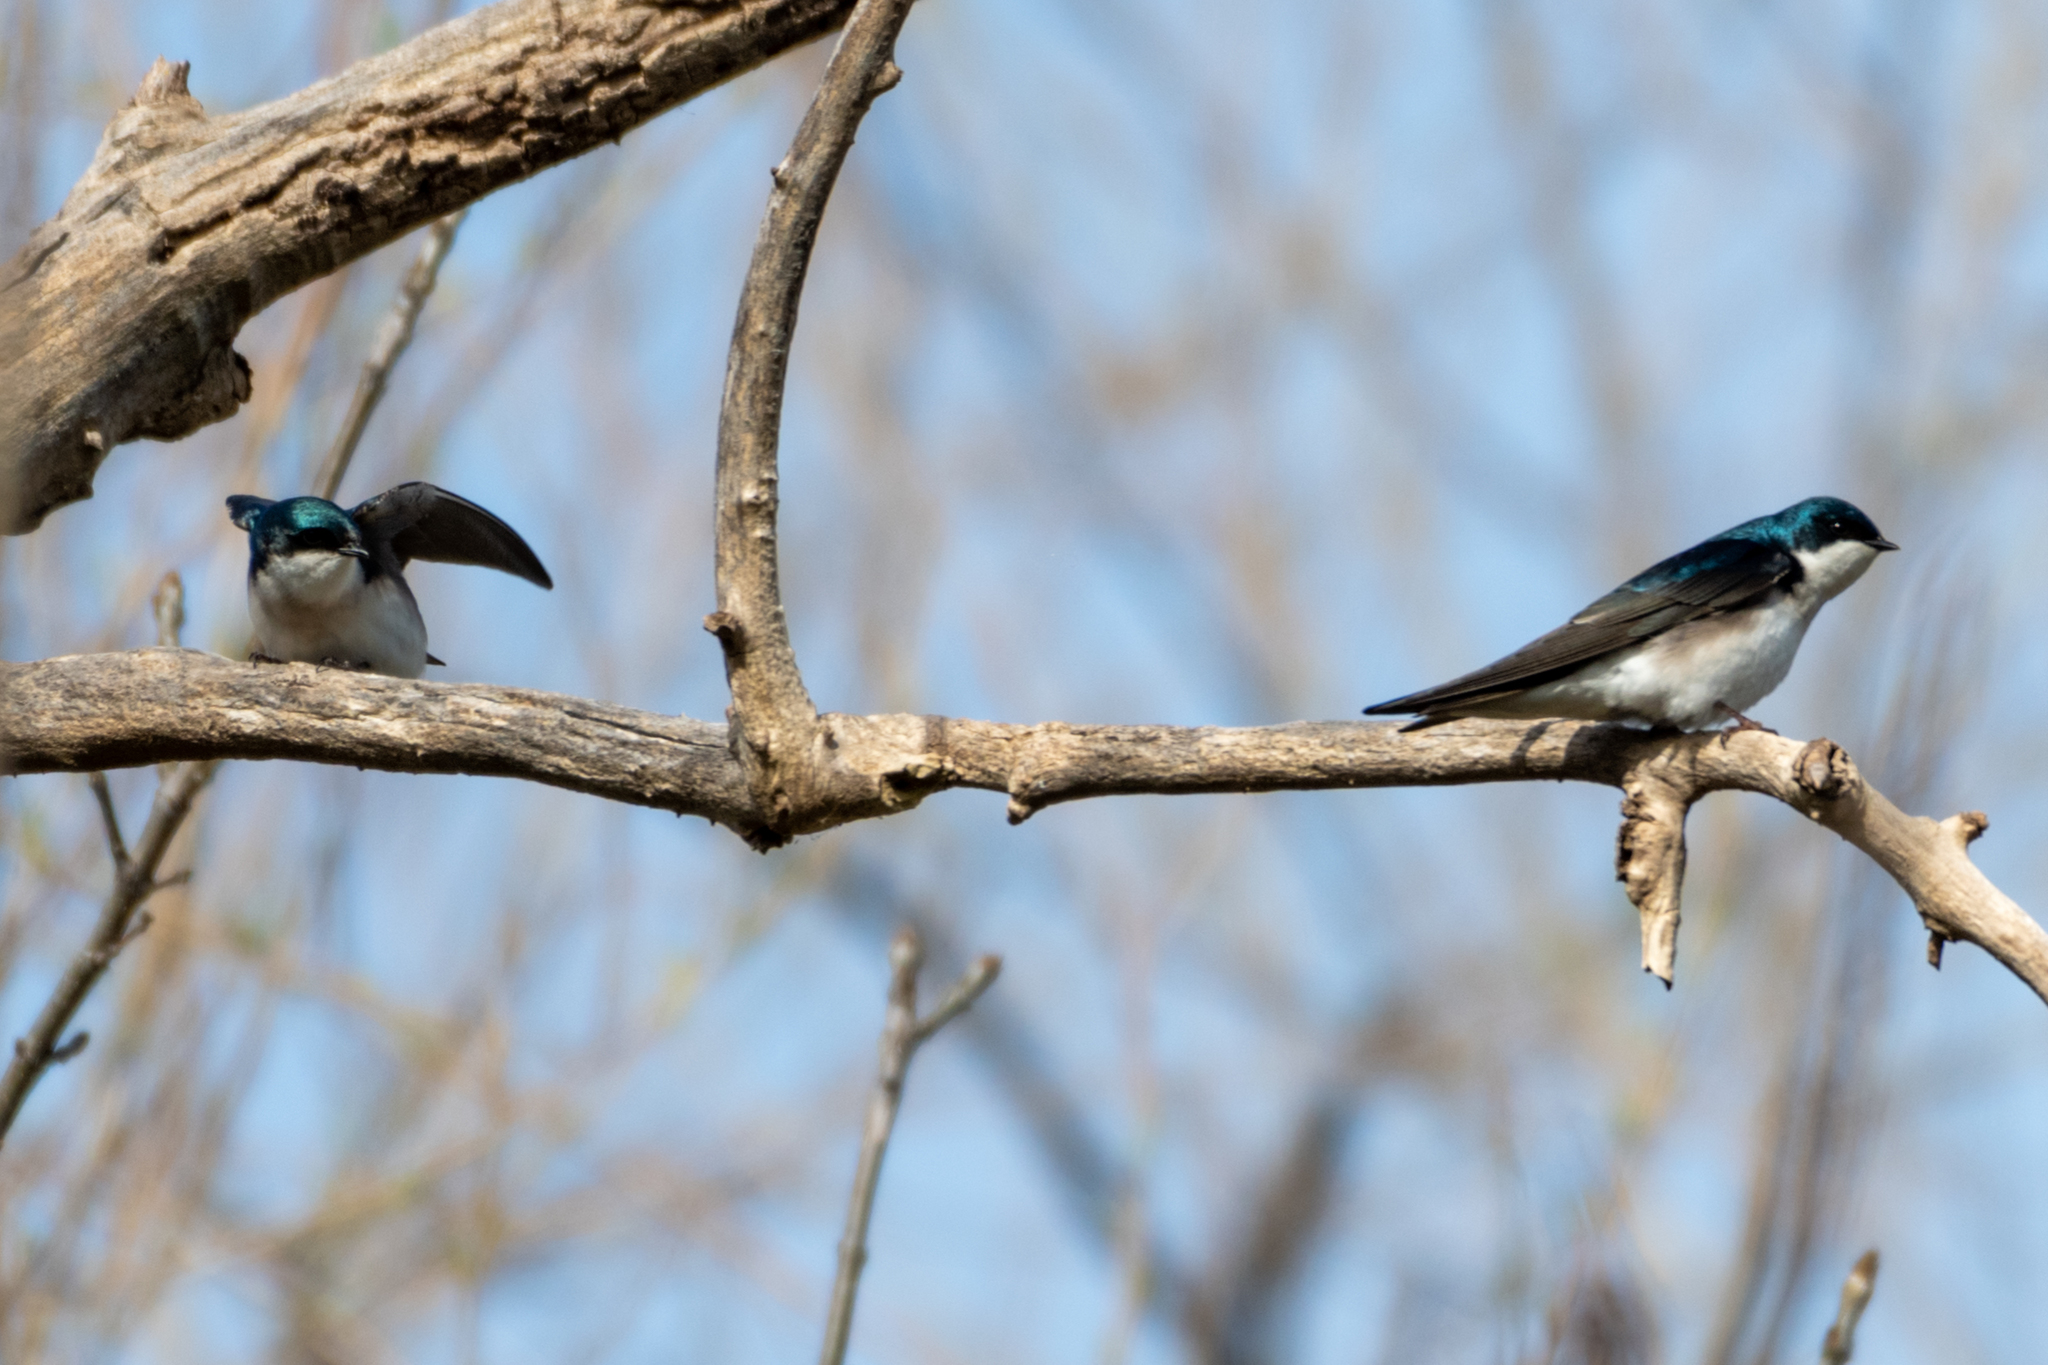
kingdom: Animalia
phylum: Chordata
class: Aves
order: Passeriformes
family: Hirundinidae
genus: Tachycineta
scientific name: Tachycineta bicolor
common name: Tree swallow
